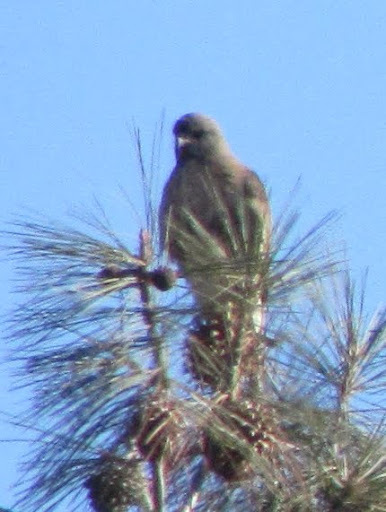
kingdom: Animalia
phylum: Chordata
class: Aves
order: Accipitriformes
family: Accipitridae
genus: Buteo
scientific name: Buteo jamaicensis
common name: Red-tailed hawk
